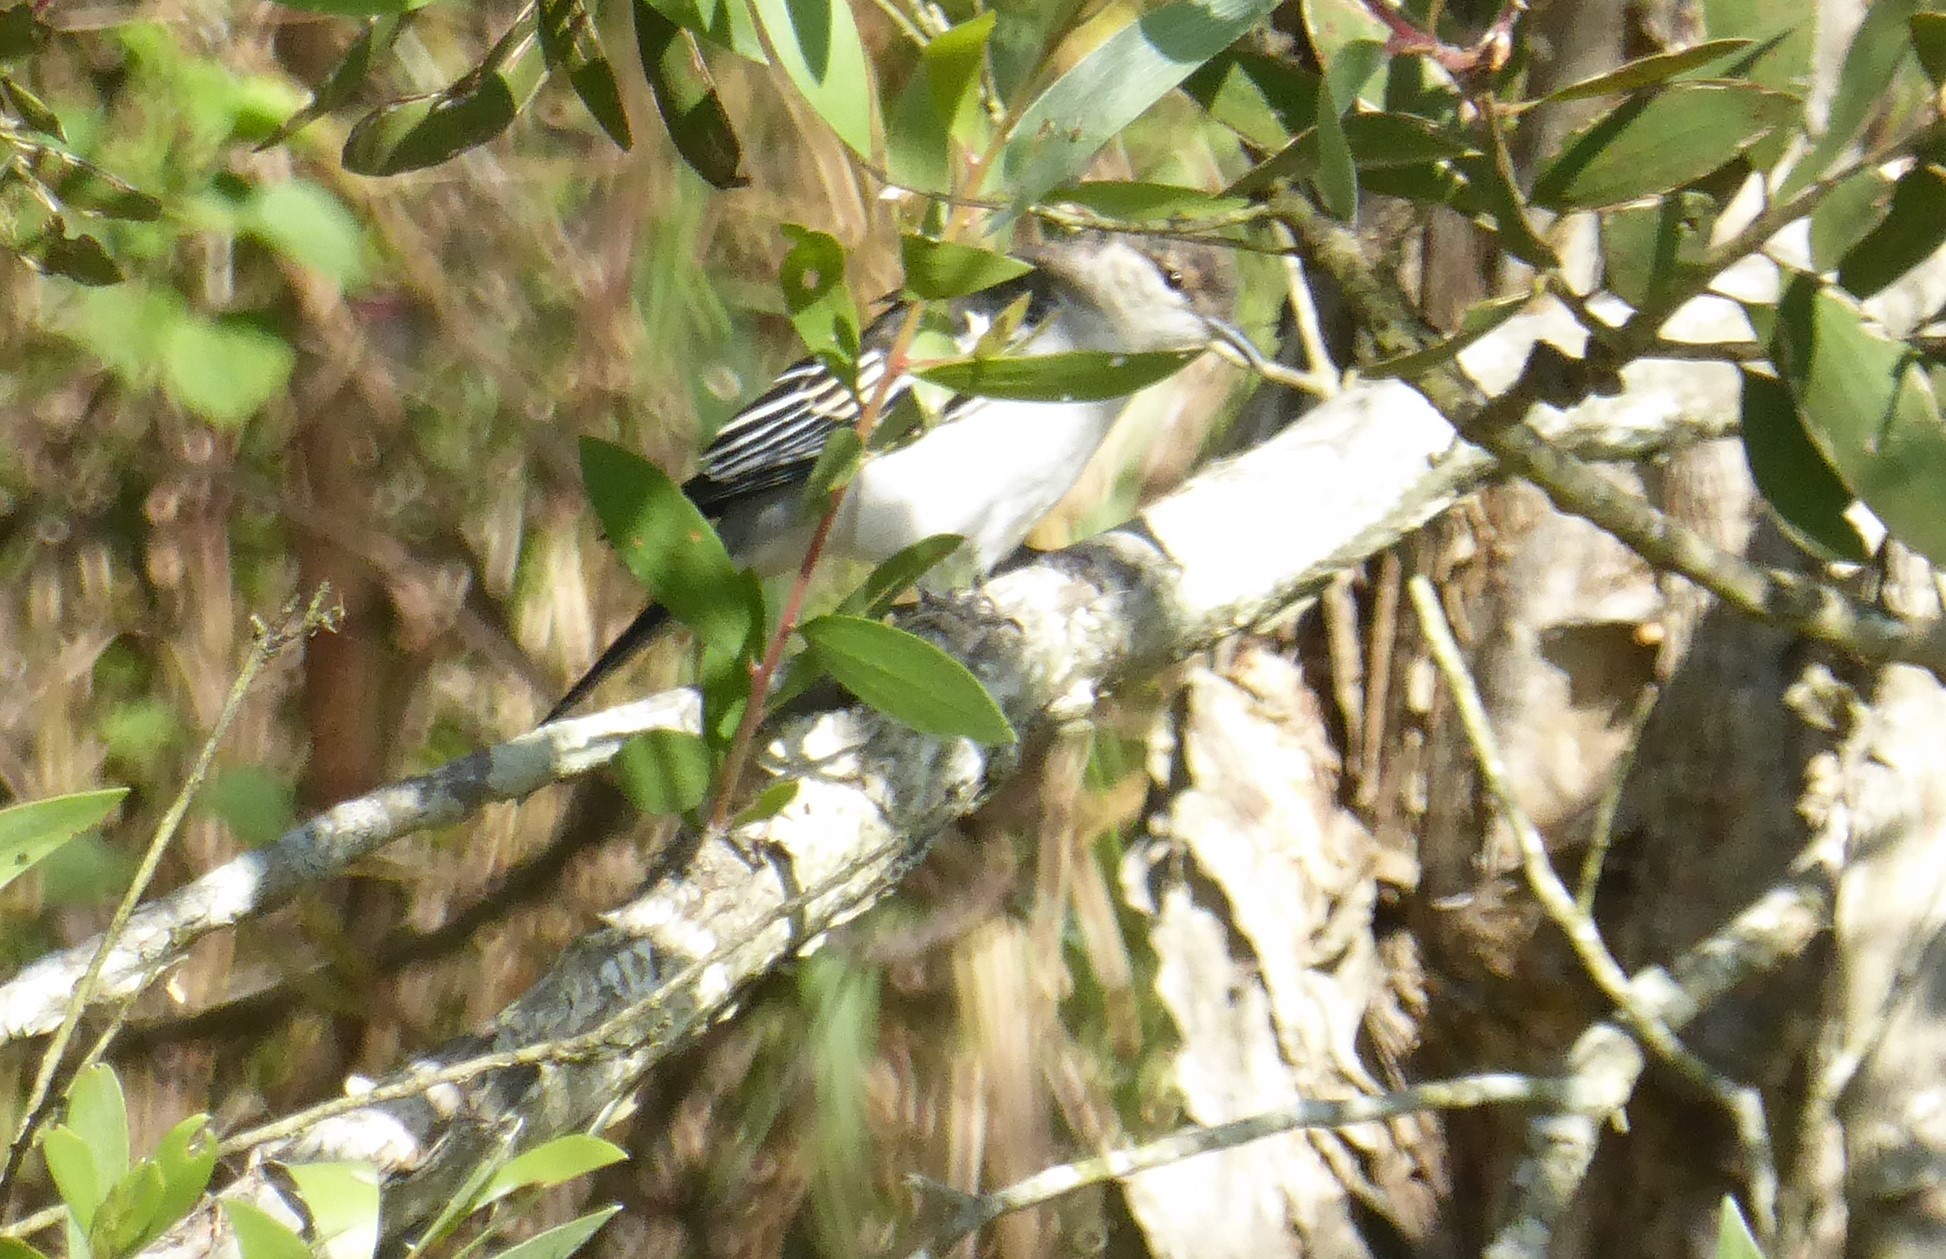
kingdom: Animalia
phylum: Chordata
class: Aves
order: Passeriformes
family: Campephagidae
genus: Lalage
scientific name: Lalage tricolor
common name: White-winged triller
